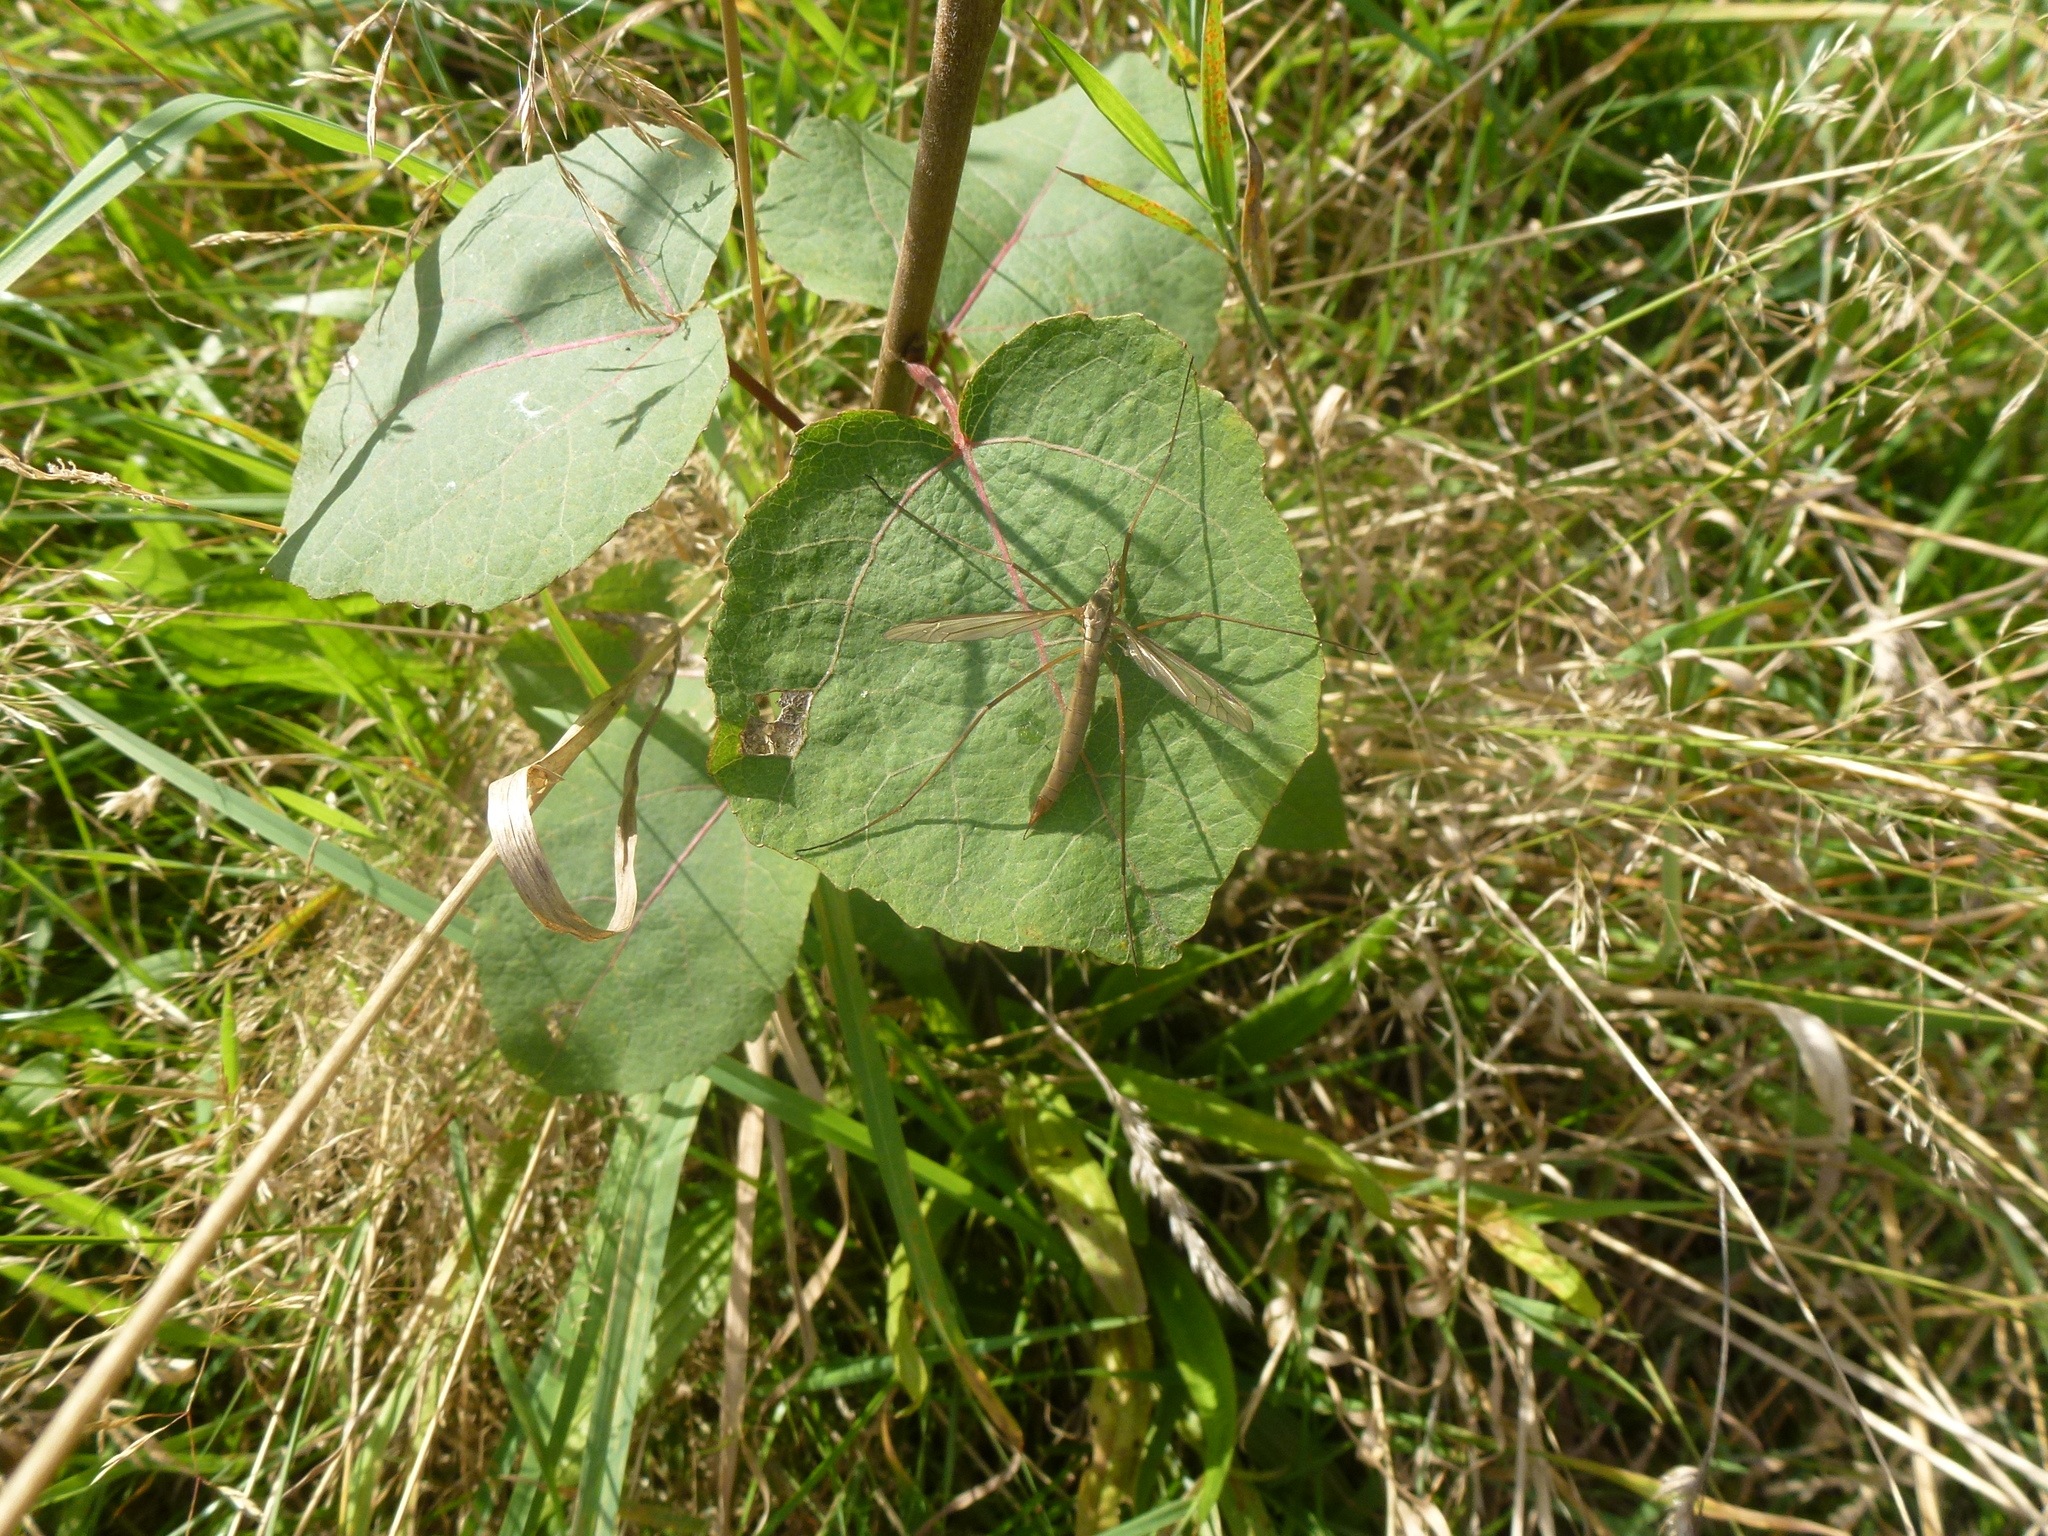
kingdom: Animalia
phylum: Arthropoda
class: Insecta
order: Diptera
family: Tipulidae
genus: Tipula
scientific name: Tipula paludosa
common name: European cranefly
